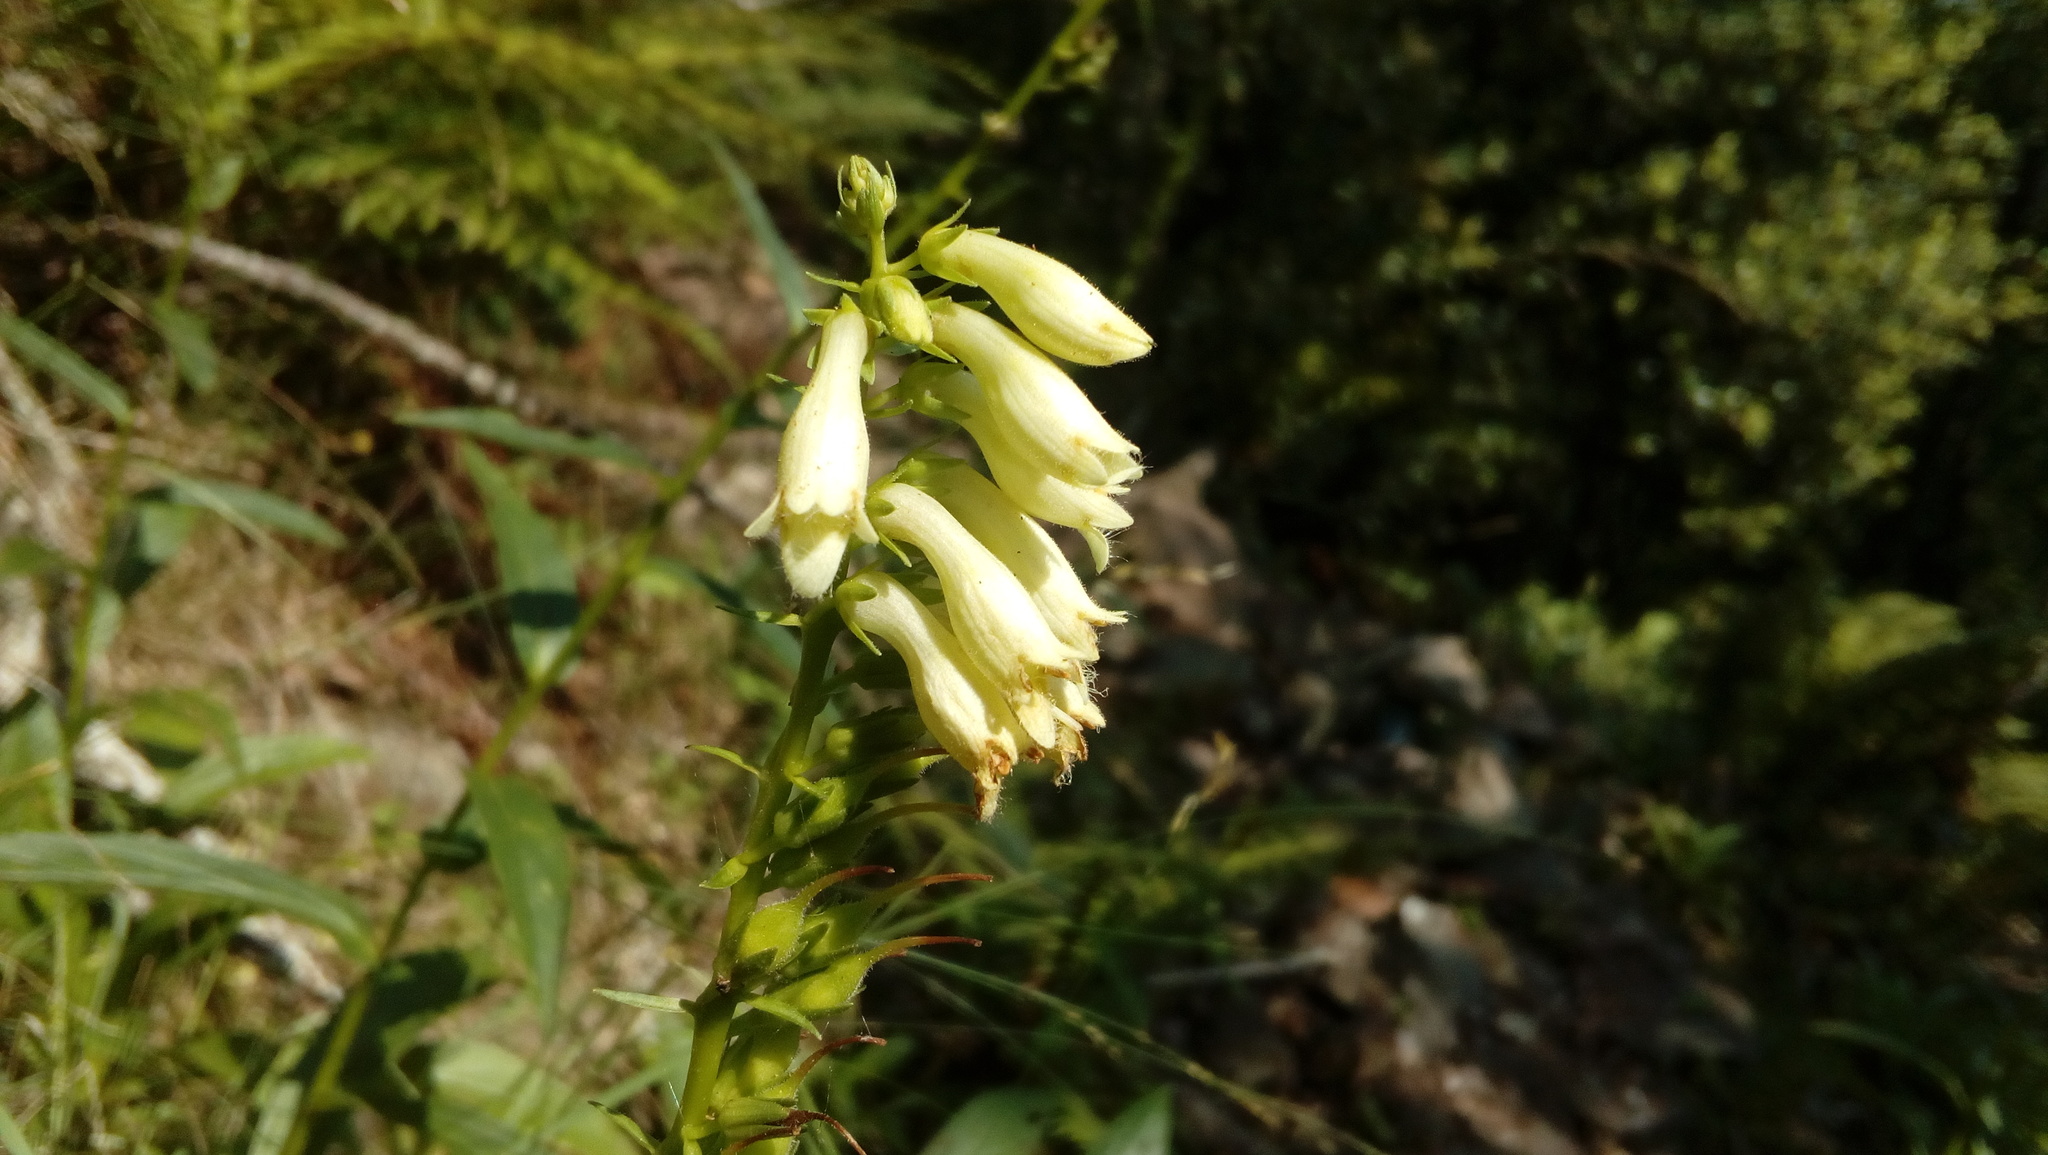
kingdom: Plantae
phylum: Tracheophyta
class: Magnoliopsida
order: Lamiales
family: Plantaginaceae
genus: Digitalis
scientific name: Digitalis lutea
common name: Straw foxglove
